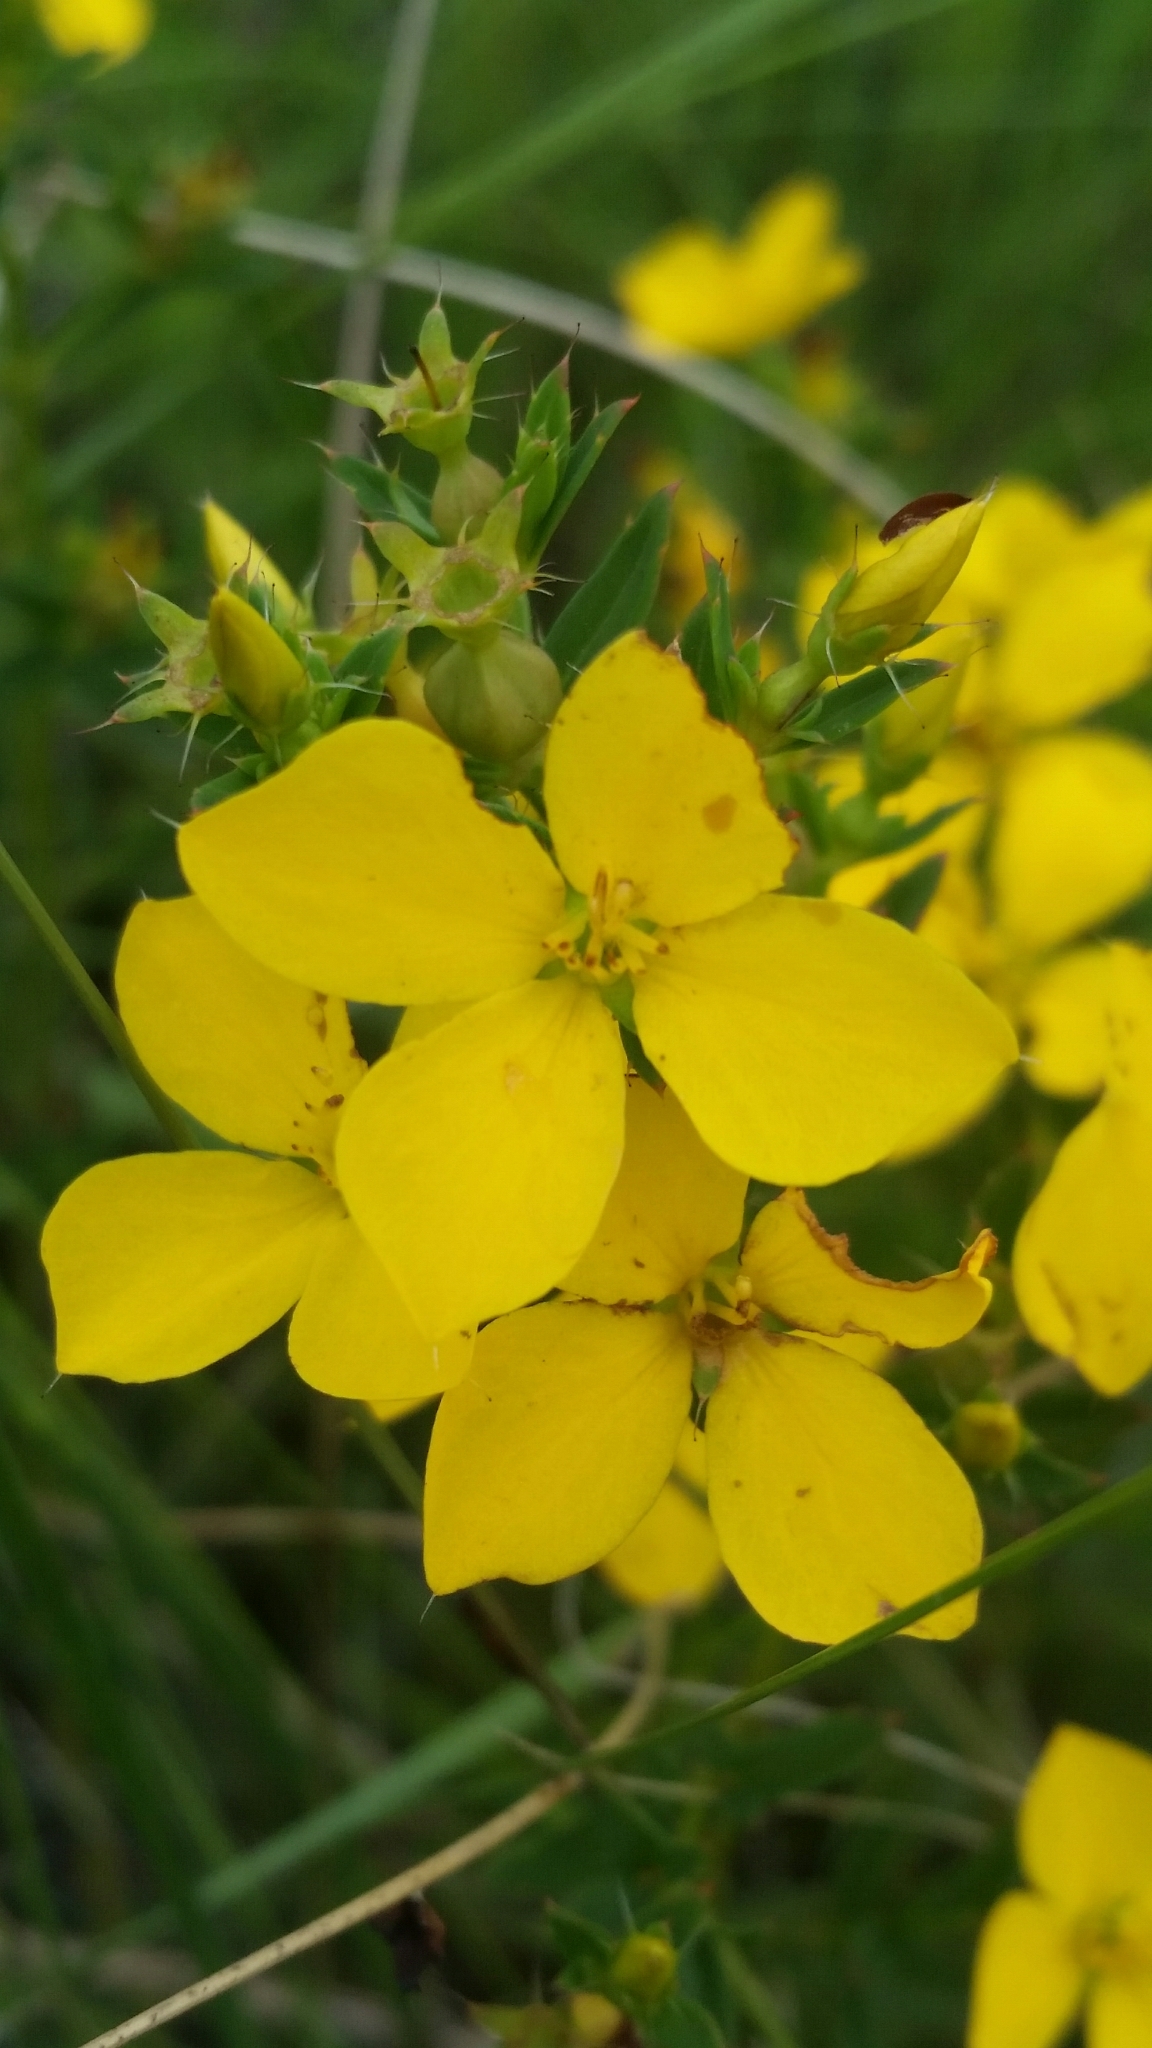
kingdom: Plantae
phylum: Tracheophyta
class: Magnoliopsida
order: Myrtales
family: Melastomataceae
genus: Rhexia
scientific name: Rhexia lutea
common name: Golden meadow-beauty
